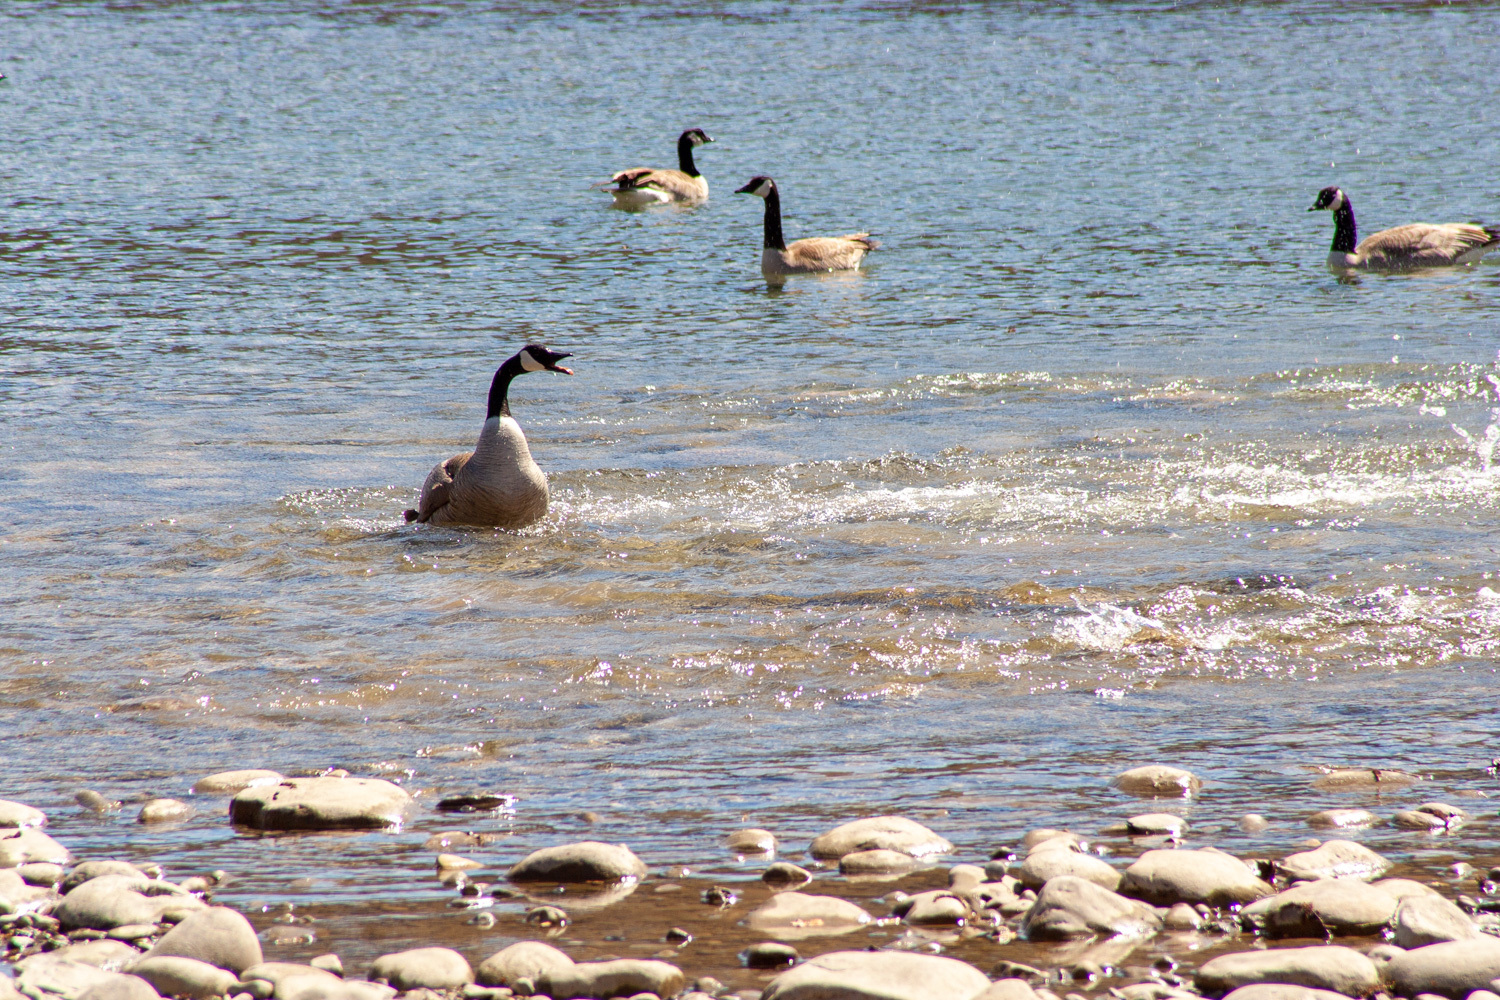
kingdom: Animalia
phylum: Chordata
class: Aves
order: Anseriformes
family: Anatidae
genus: Branta
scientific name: Branta canadensis
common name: Canada goose
